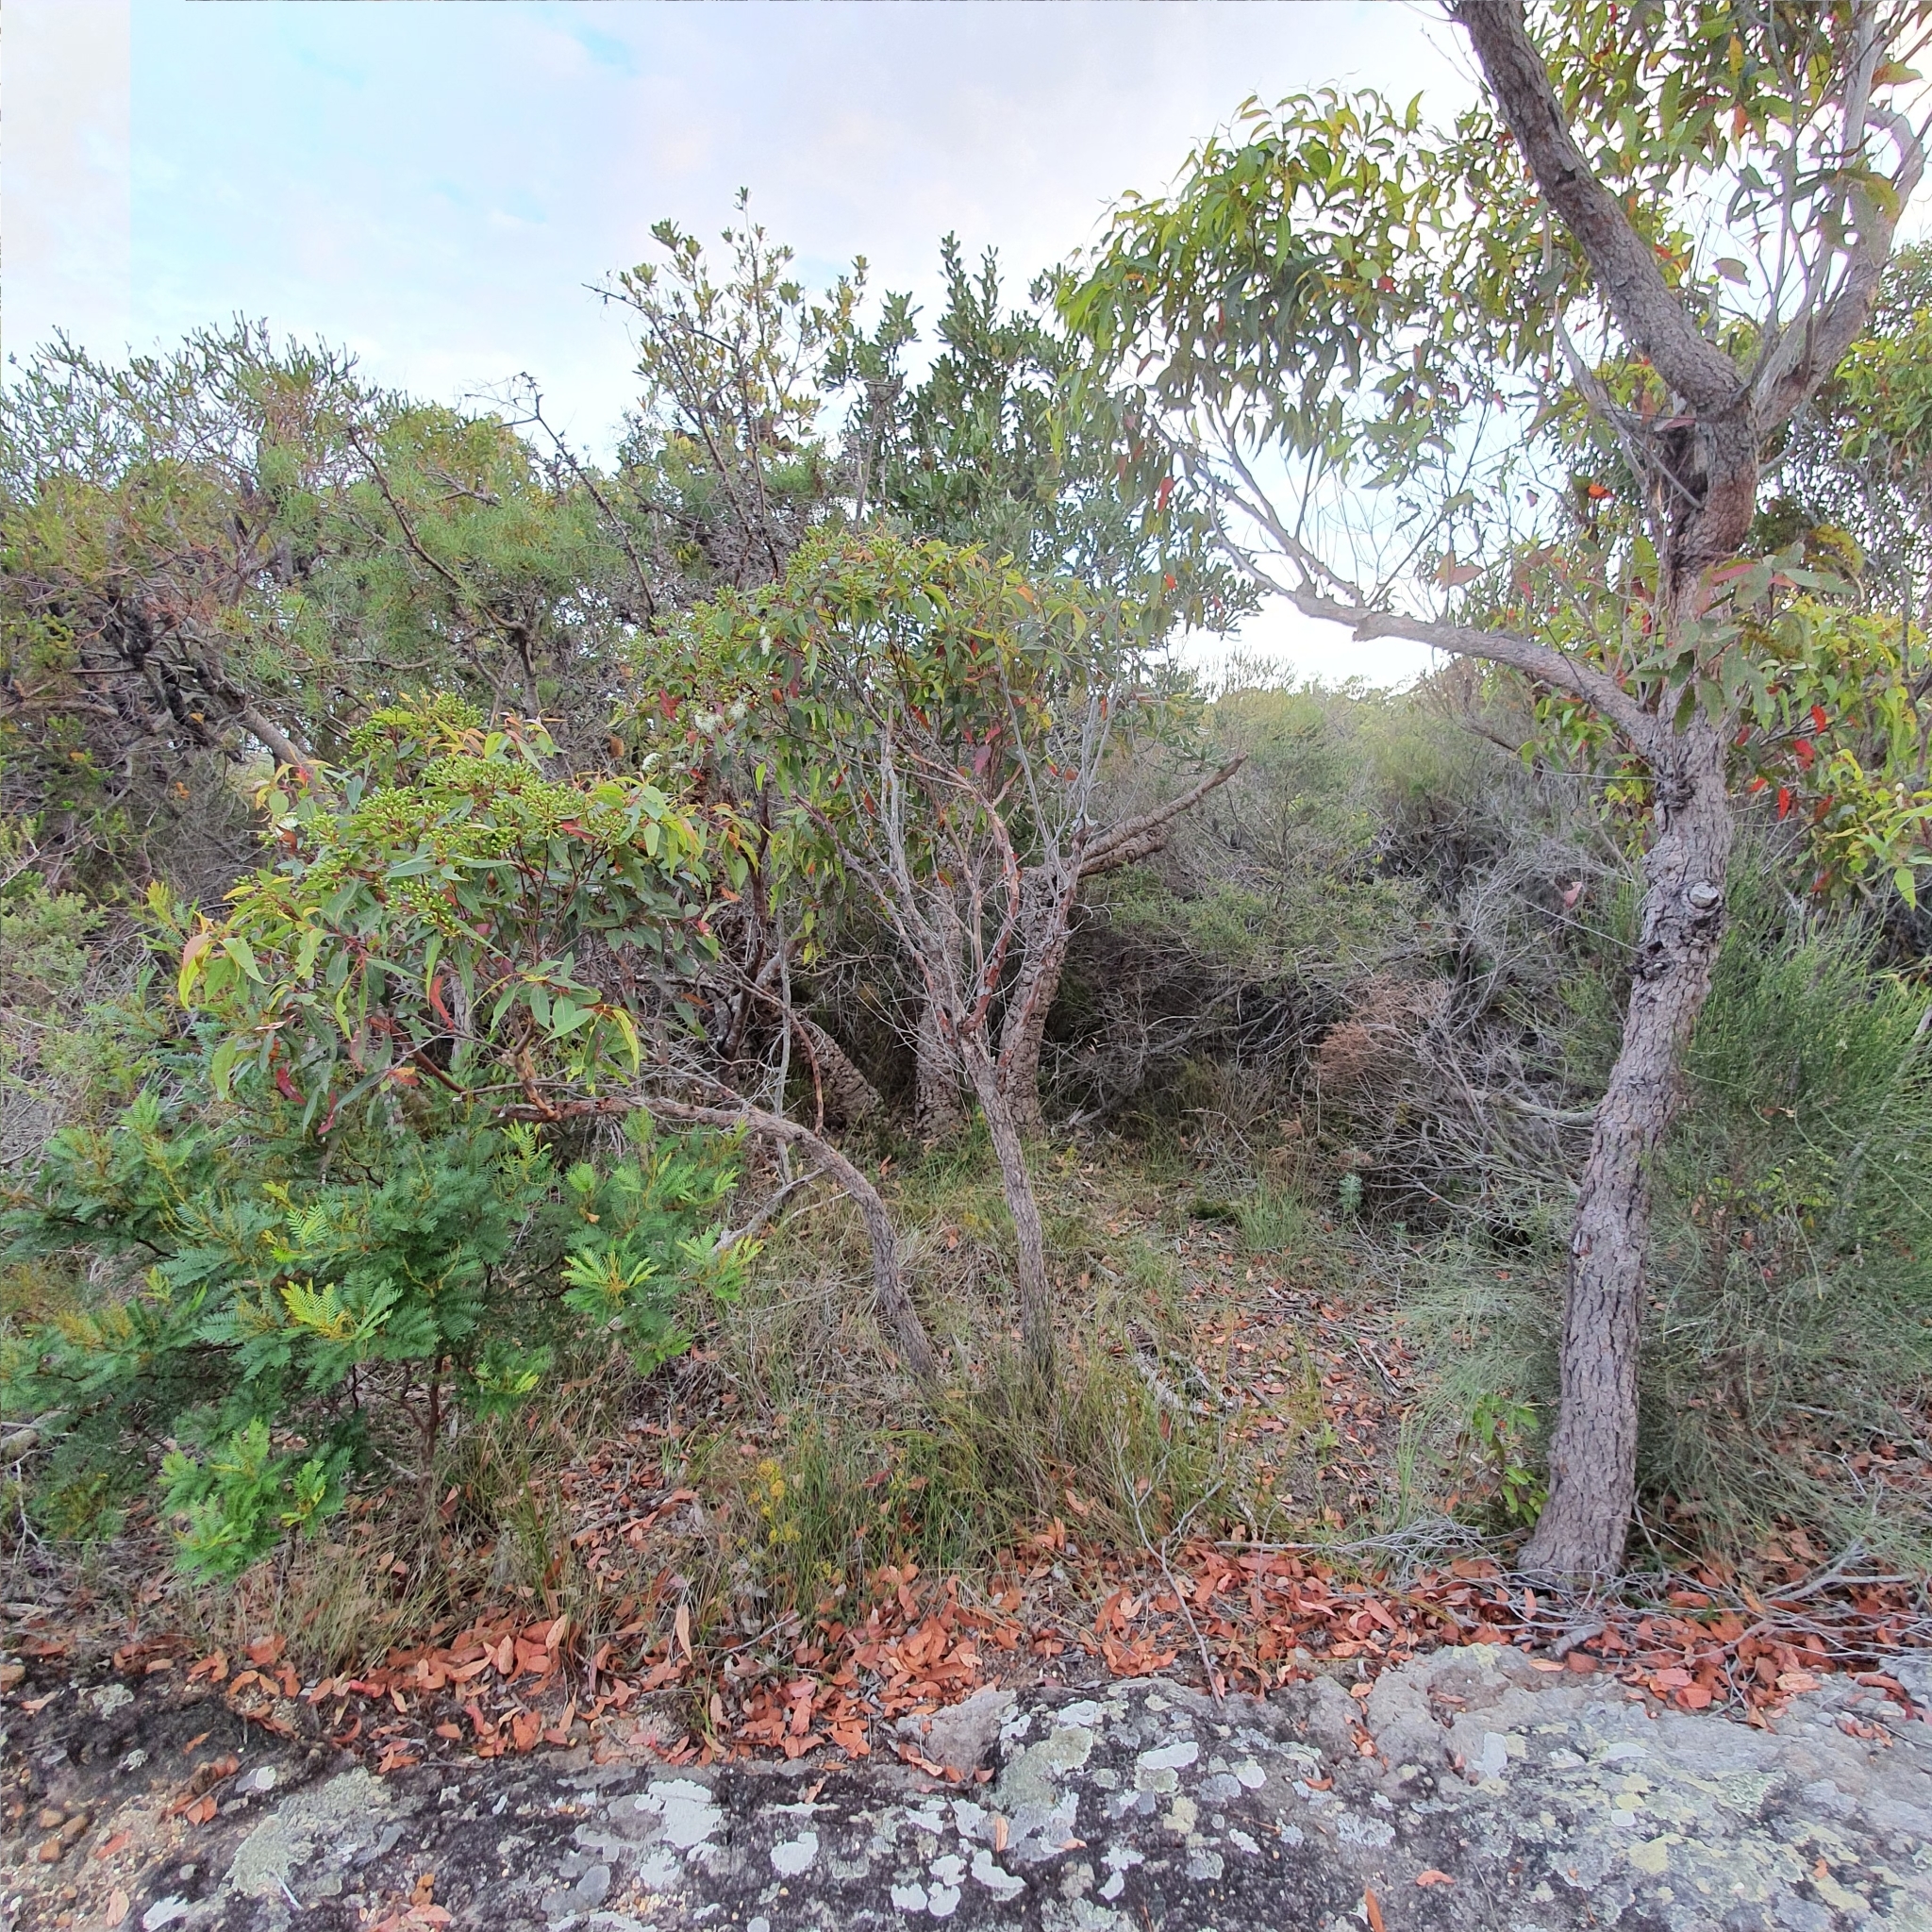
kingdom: Plantae
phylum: Tracheophyta
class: Magnoliopsida
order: Myrtales
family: Myrtaceae
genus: Corymbia
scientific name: Corymbia gummifera
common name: Red bloodwood
